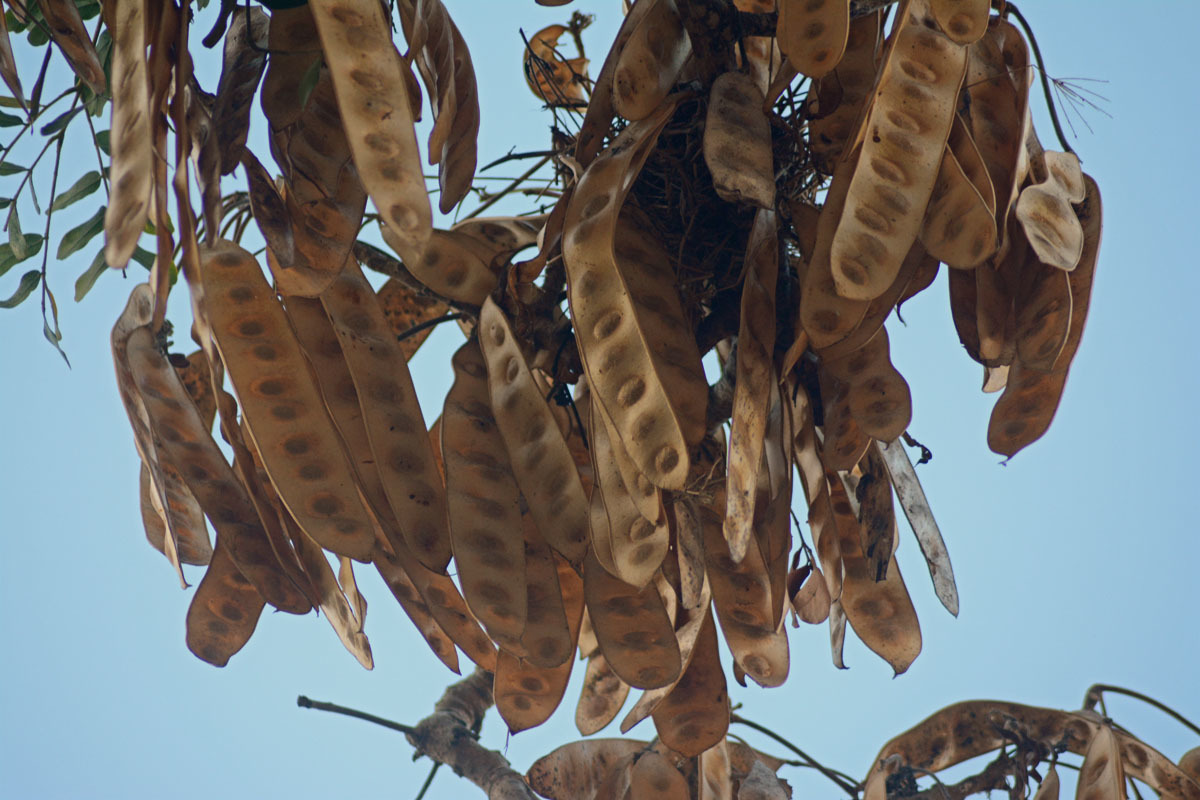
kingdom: Plantae
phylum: Tracheophyta
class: Magnoliopsida
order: Fabales
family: Fabaceae
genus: Albizia
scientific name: Albizia lebbeck
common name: Woman's tongue
